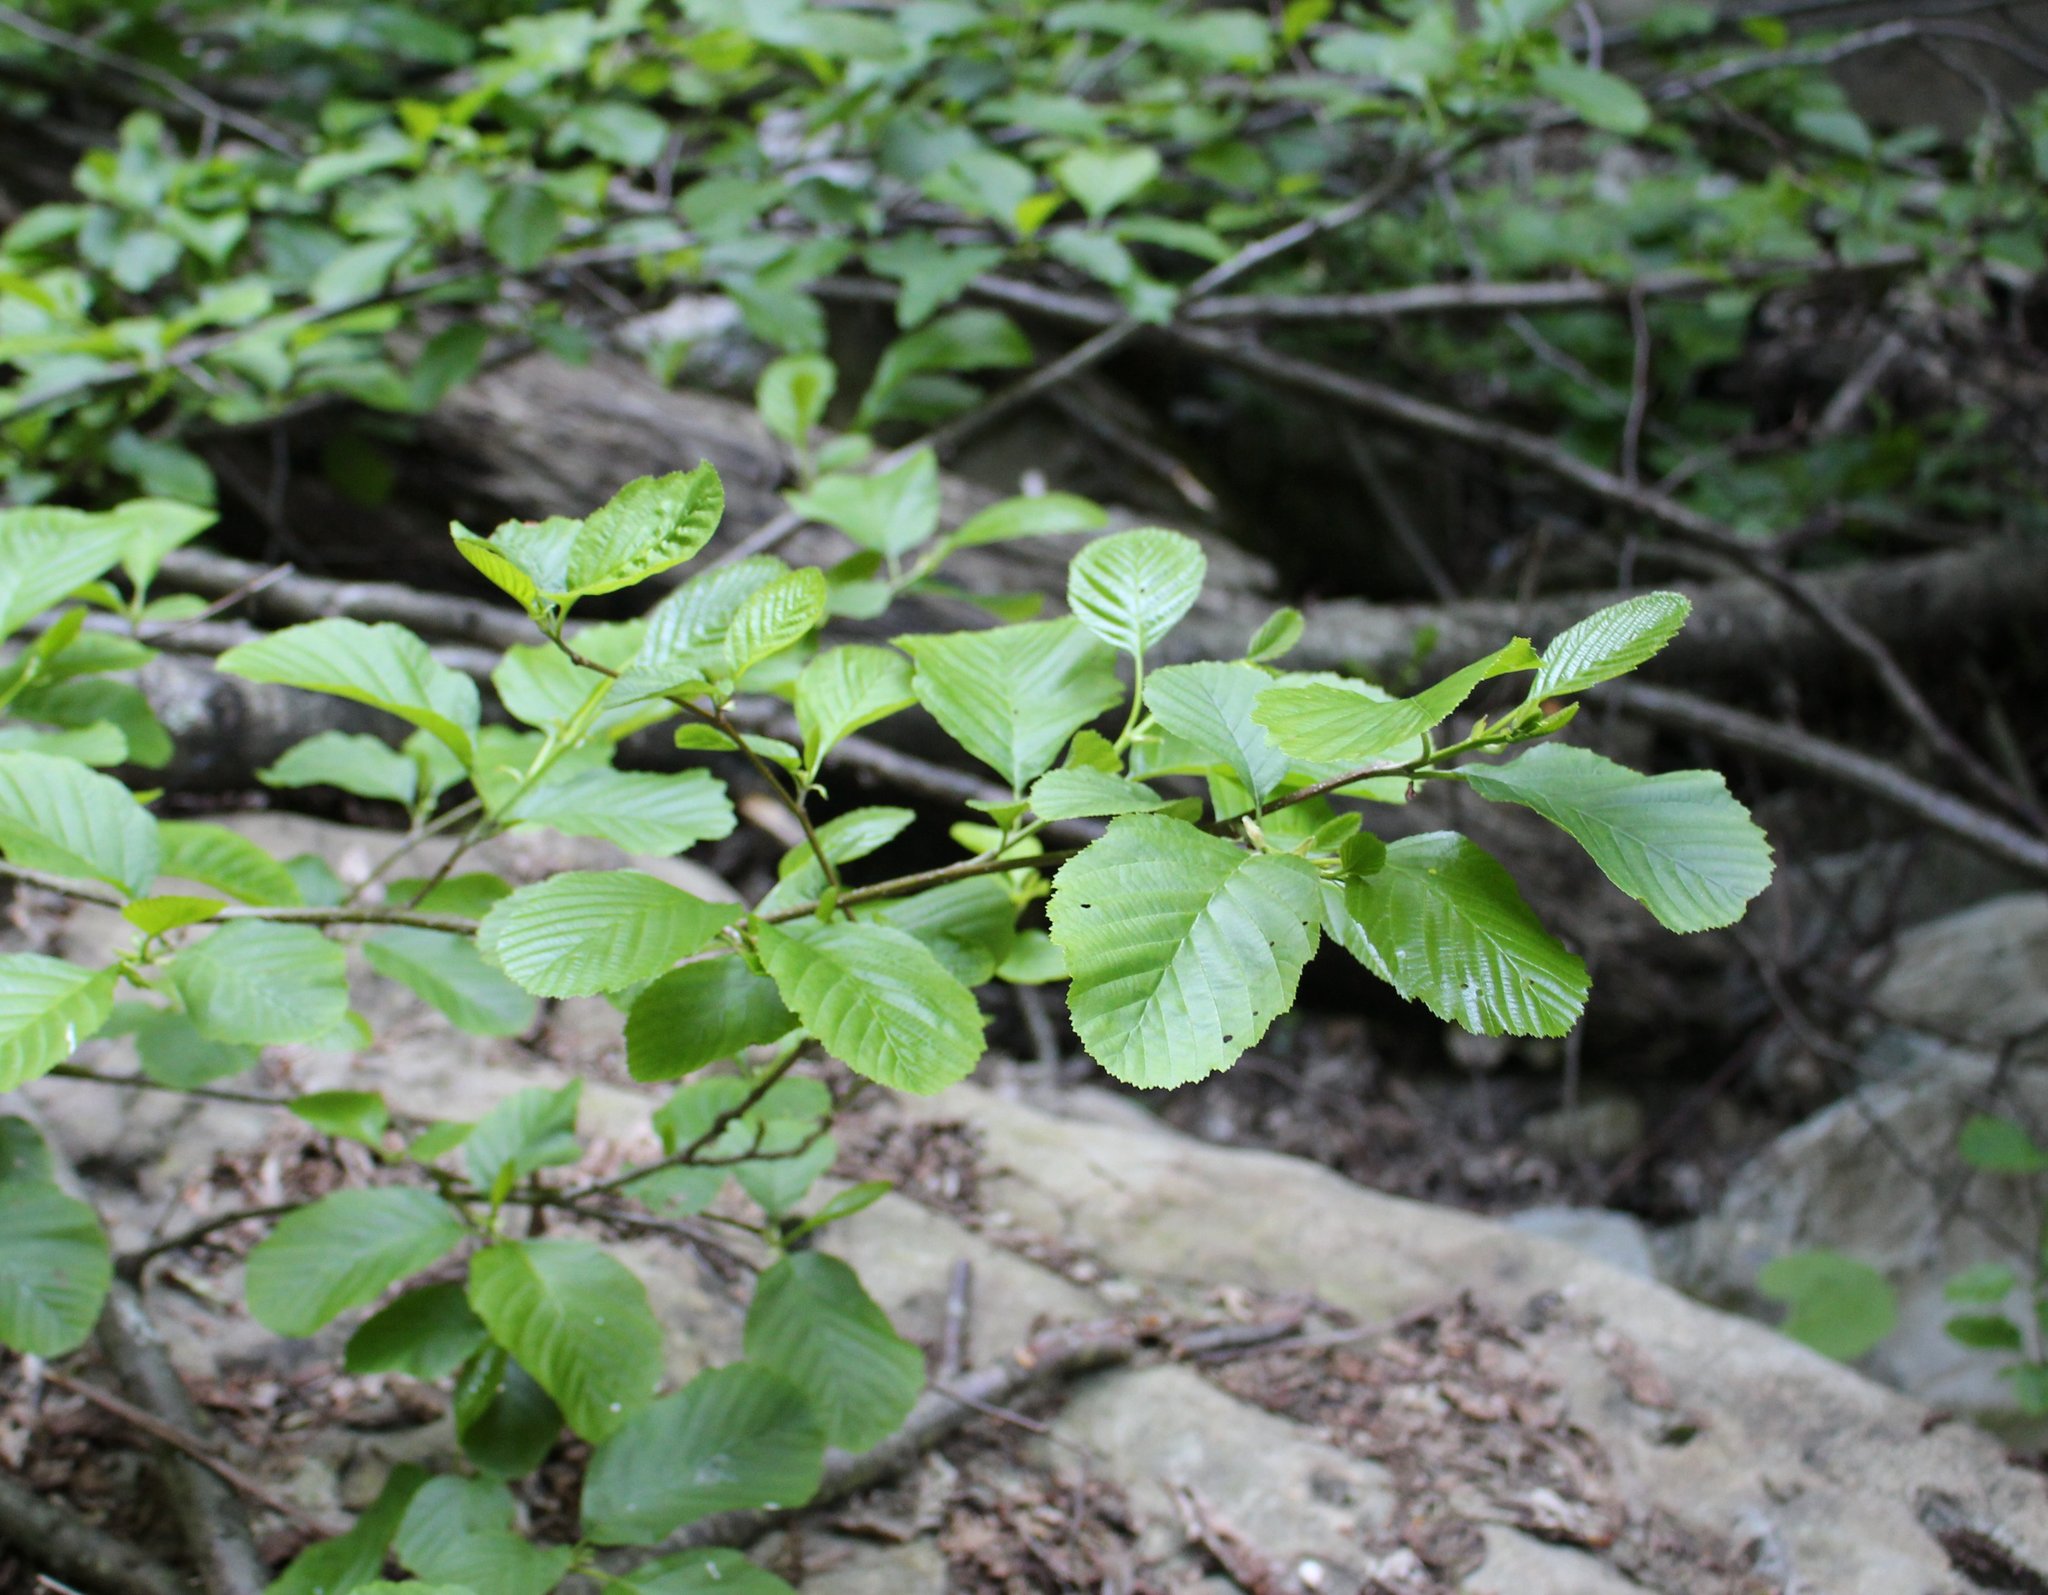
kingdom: Plantae
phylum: Tracheophyta
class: Magnoliopsida
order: Fagales
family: Betulaceae
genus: Alnus
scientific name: Alnus glutinosa
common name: Black alder
